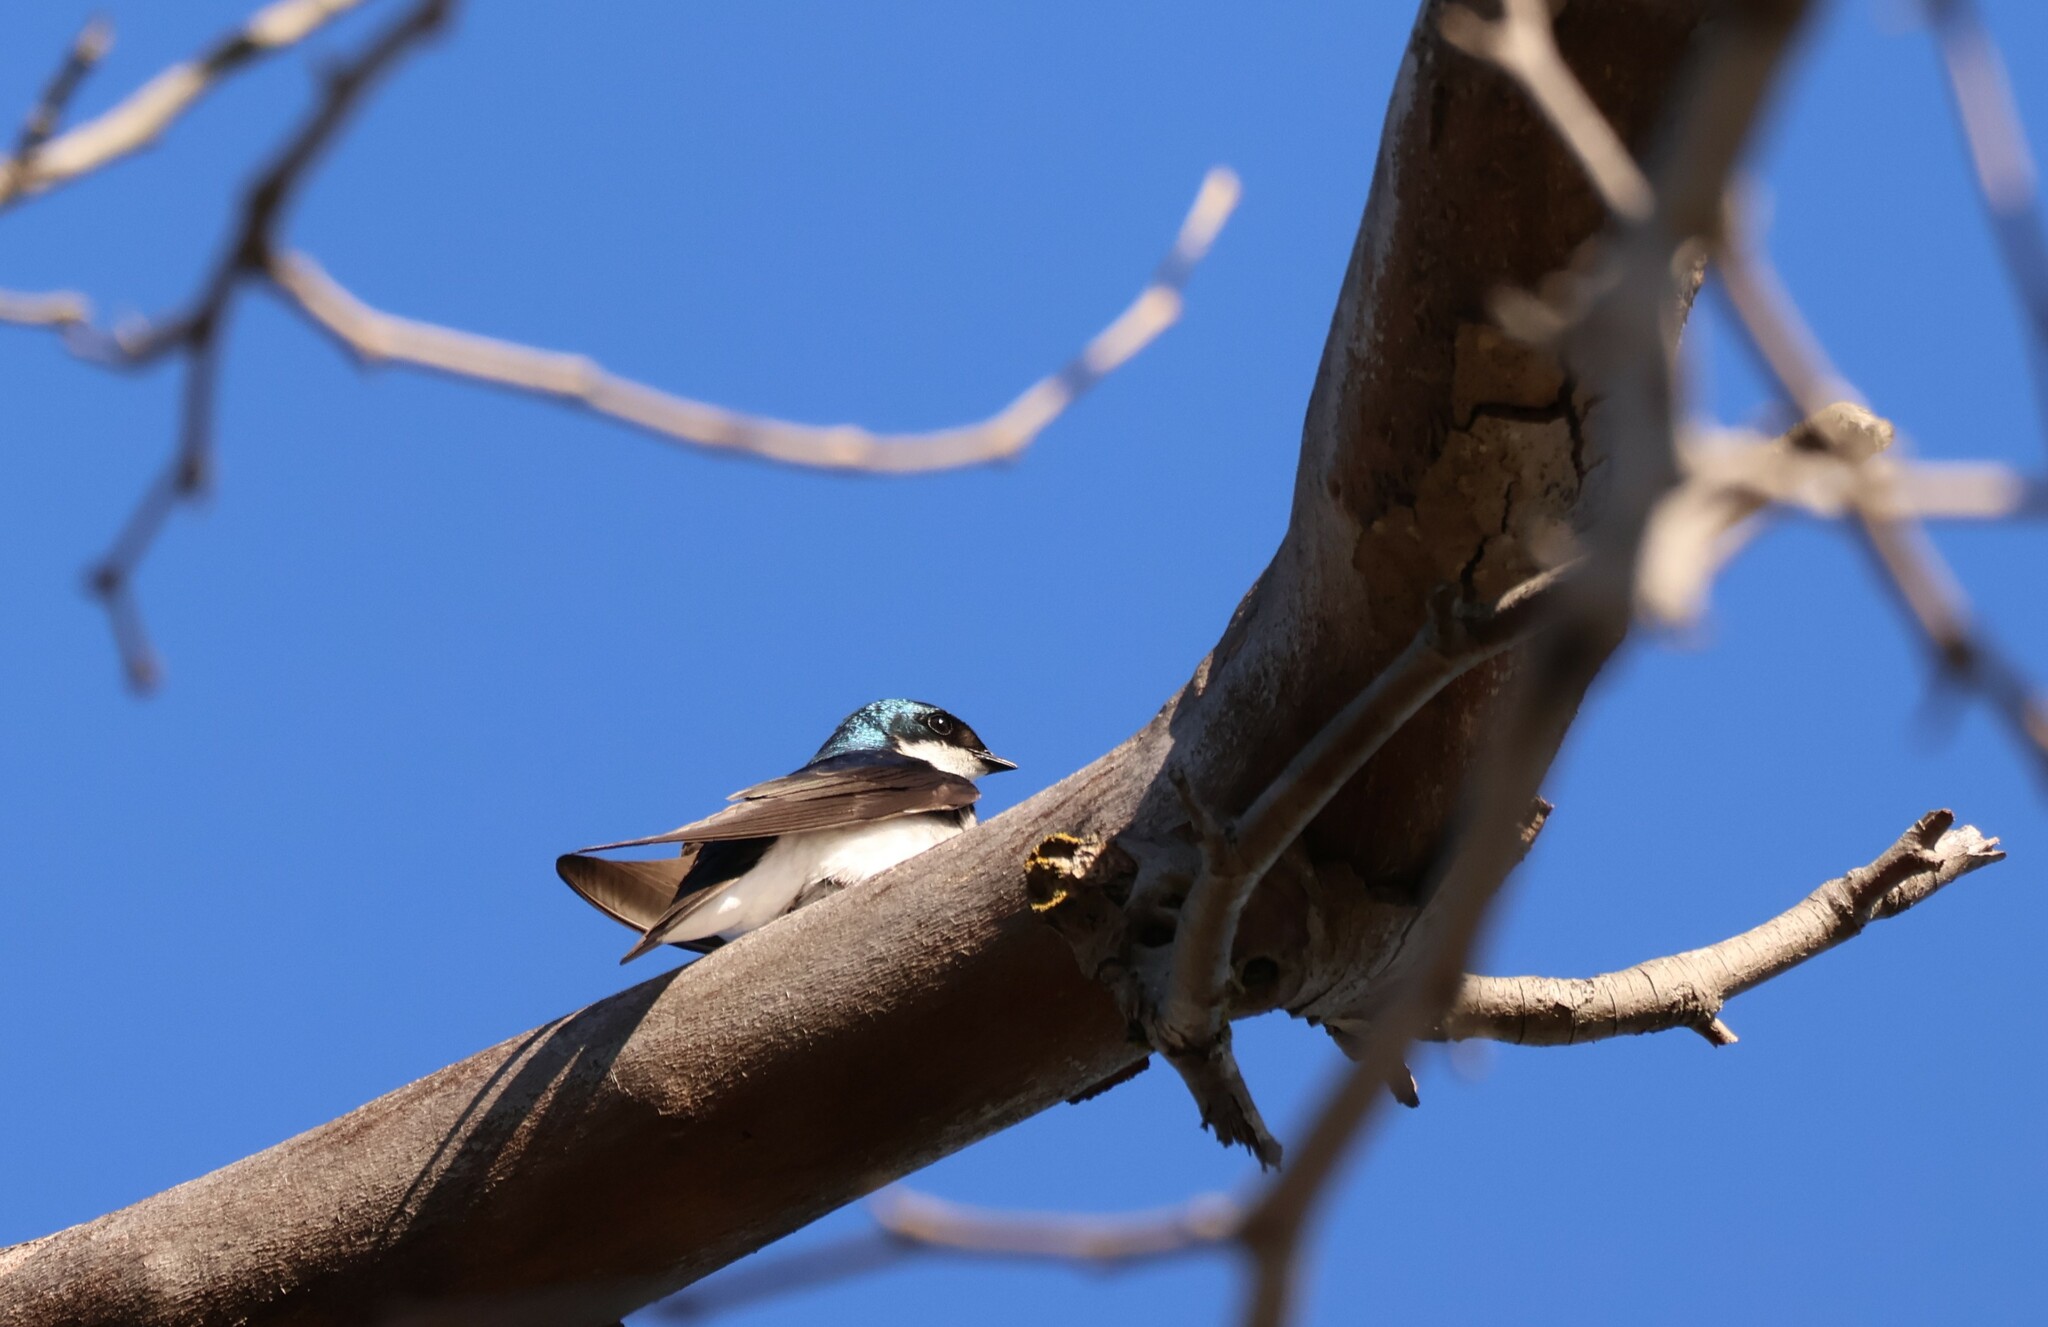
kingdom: Animalia
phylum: Chordata
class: Aves
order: Passeriformes
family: Hirundinidae
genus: Tachycineta
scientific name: Tachycineta bicolor
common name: Tree swallow
